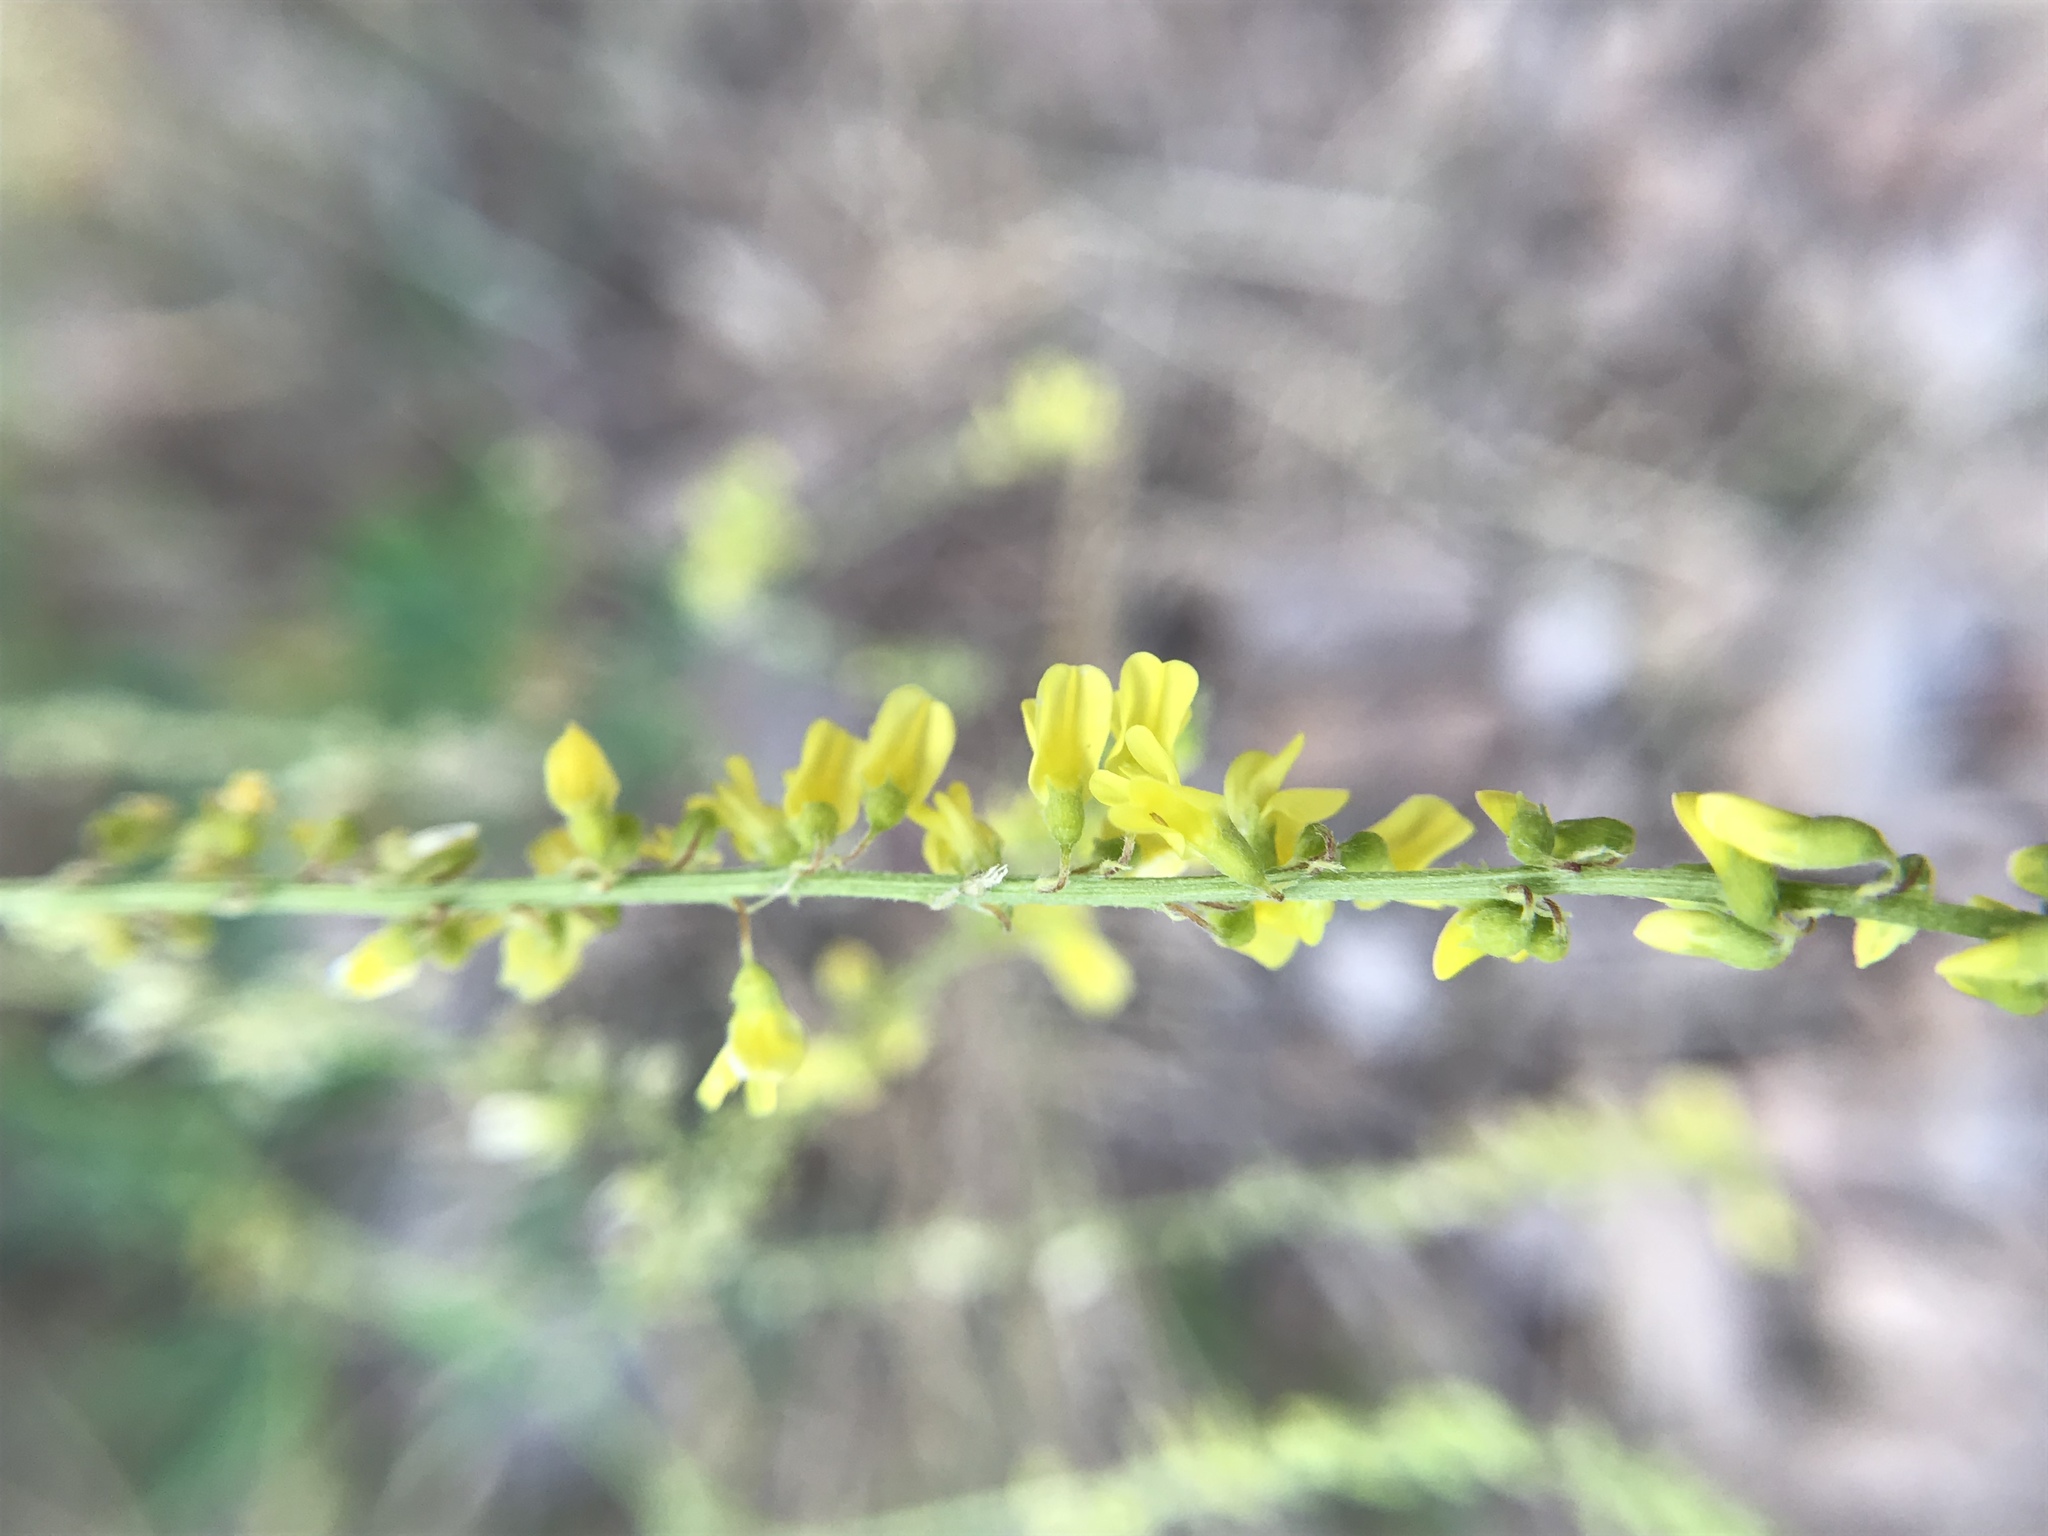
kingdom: Plantae
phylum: Tracheophyta
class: Magnoliopsida
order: Fabales
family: Fabaceae
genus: Melilotus
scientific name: Melilotus officinalis
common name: Sweetclover
